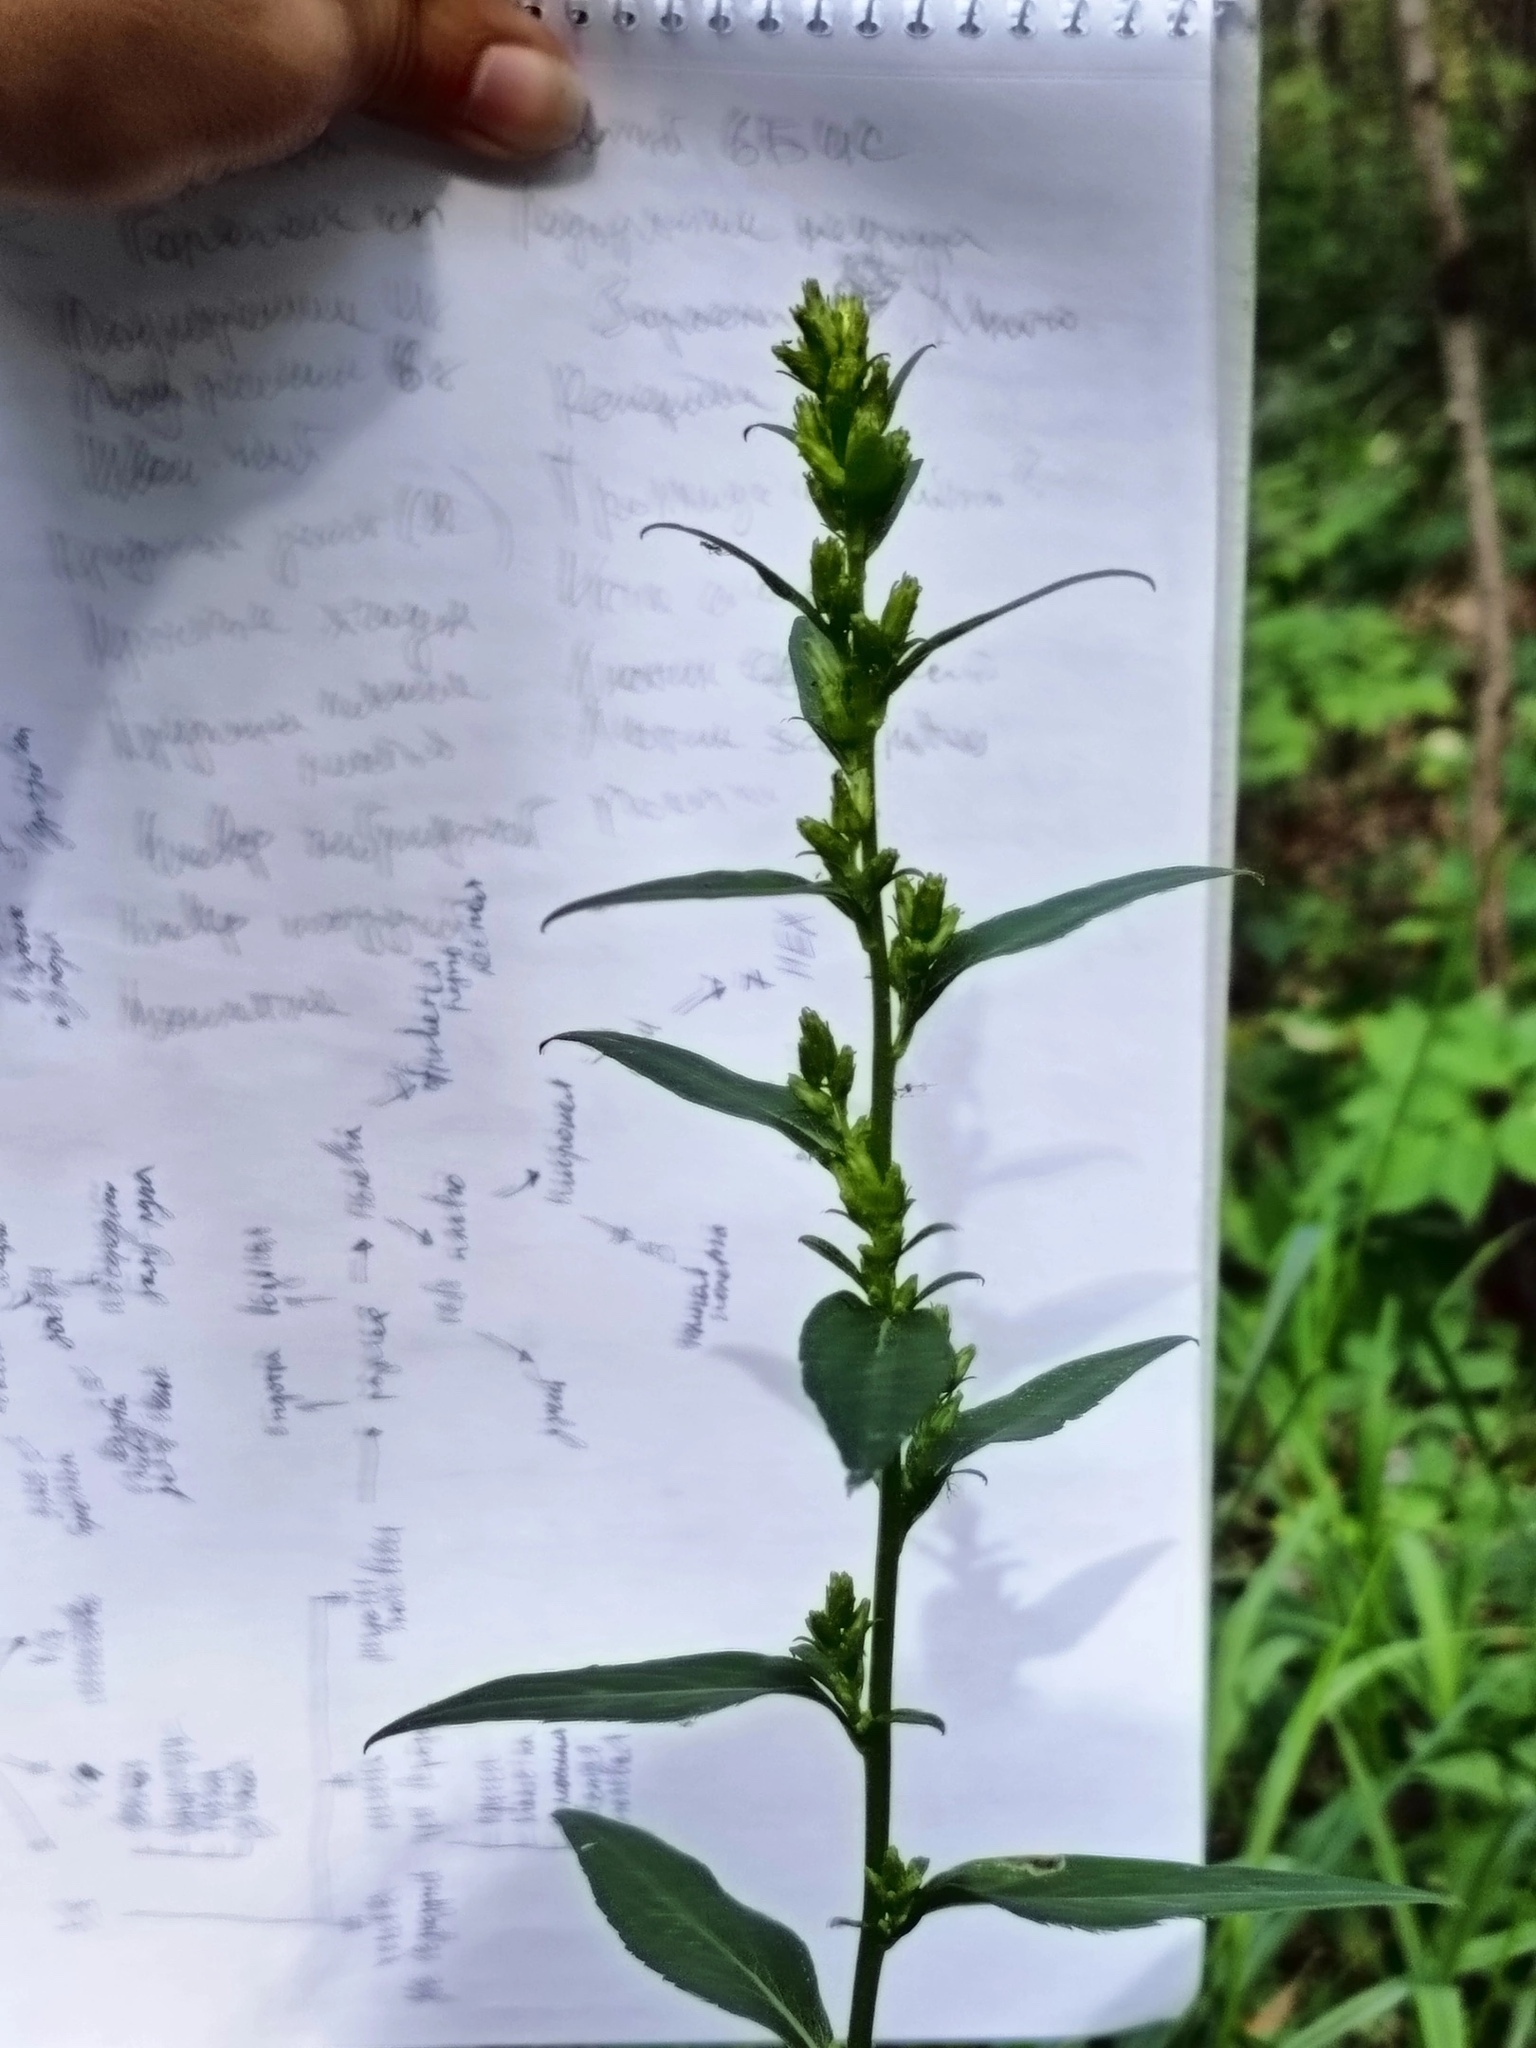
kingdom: Plantae
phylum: Tracheophyta
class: Magnoliopsida
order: Asterales
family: Asteraceae
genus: Solidago
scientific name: Solidago virgaurea
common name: Goldenrod
